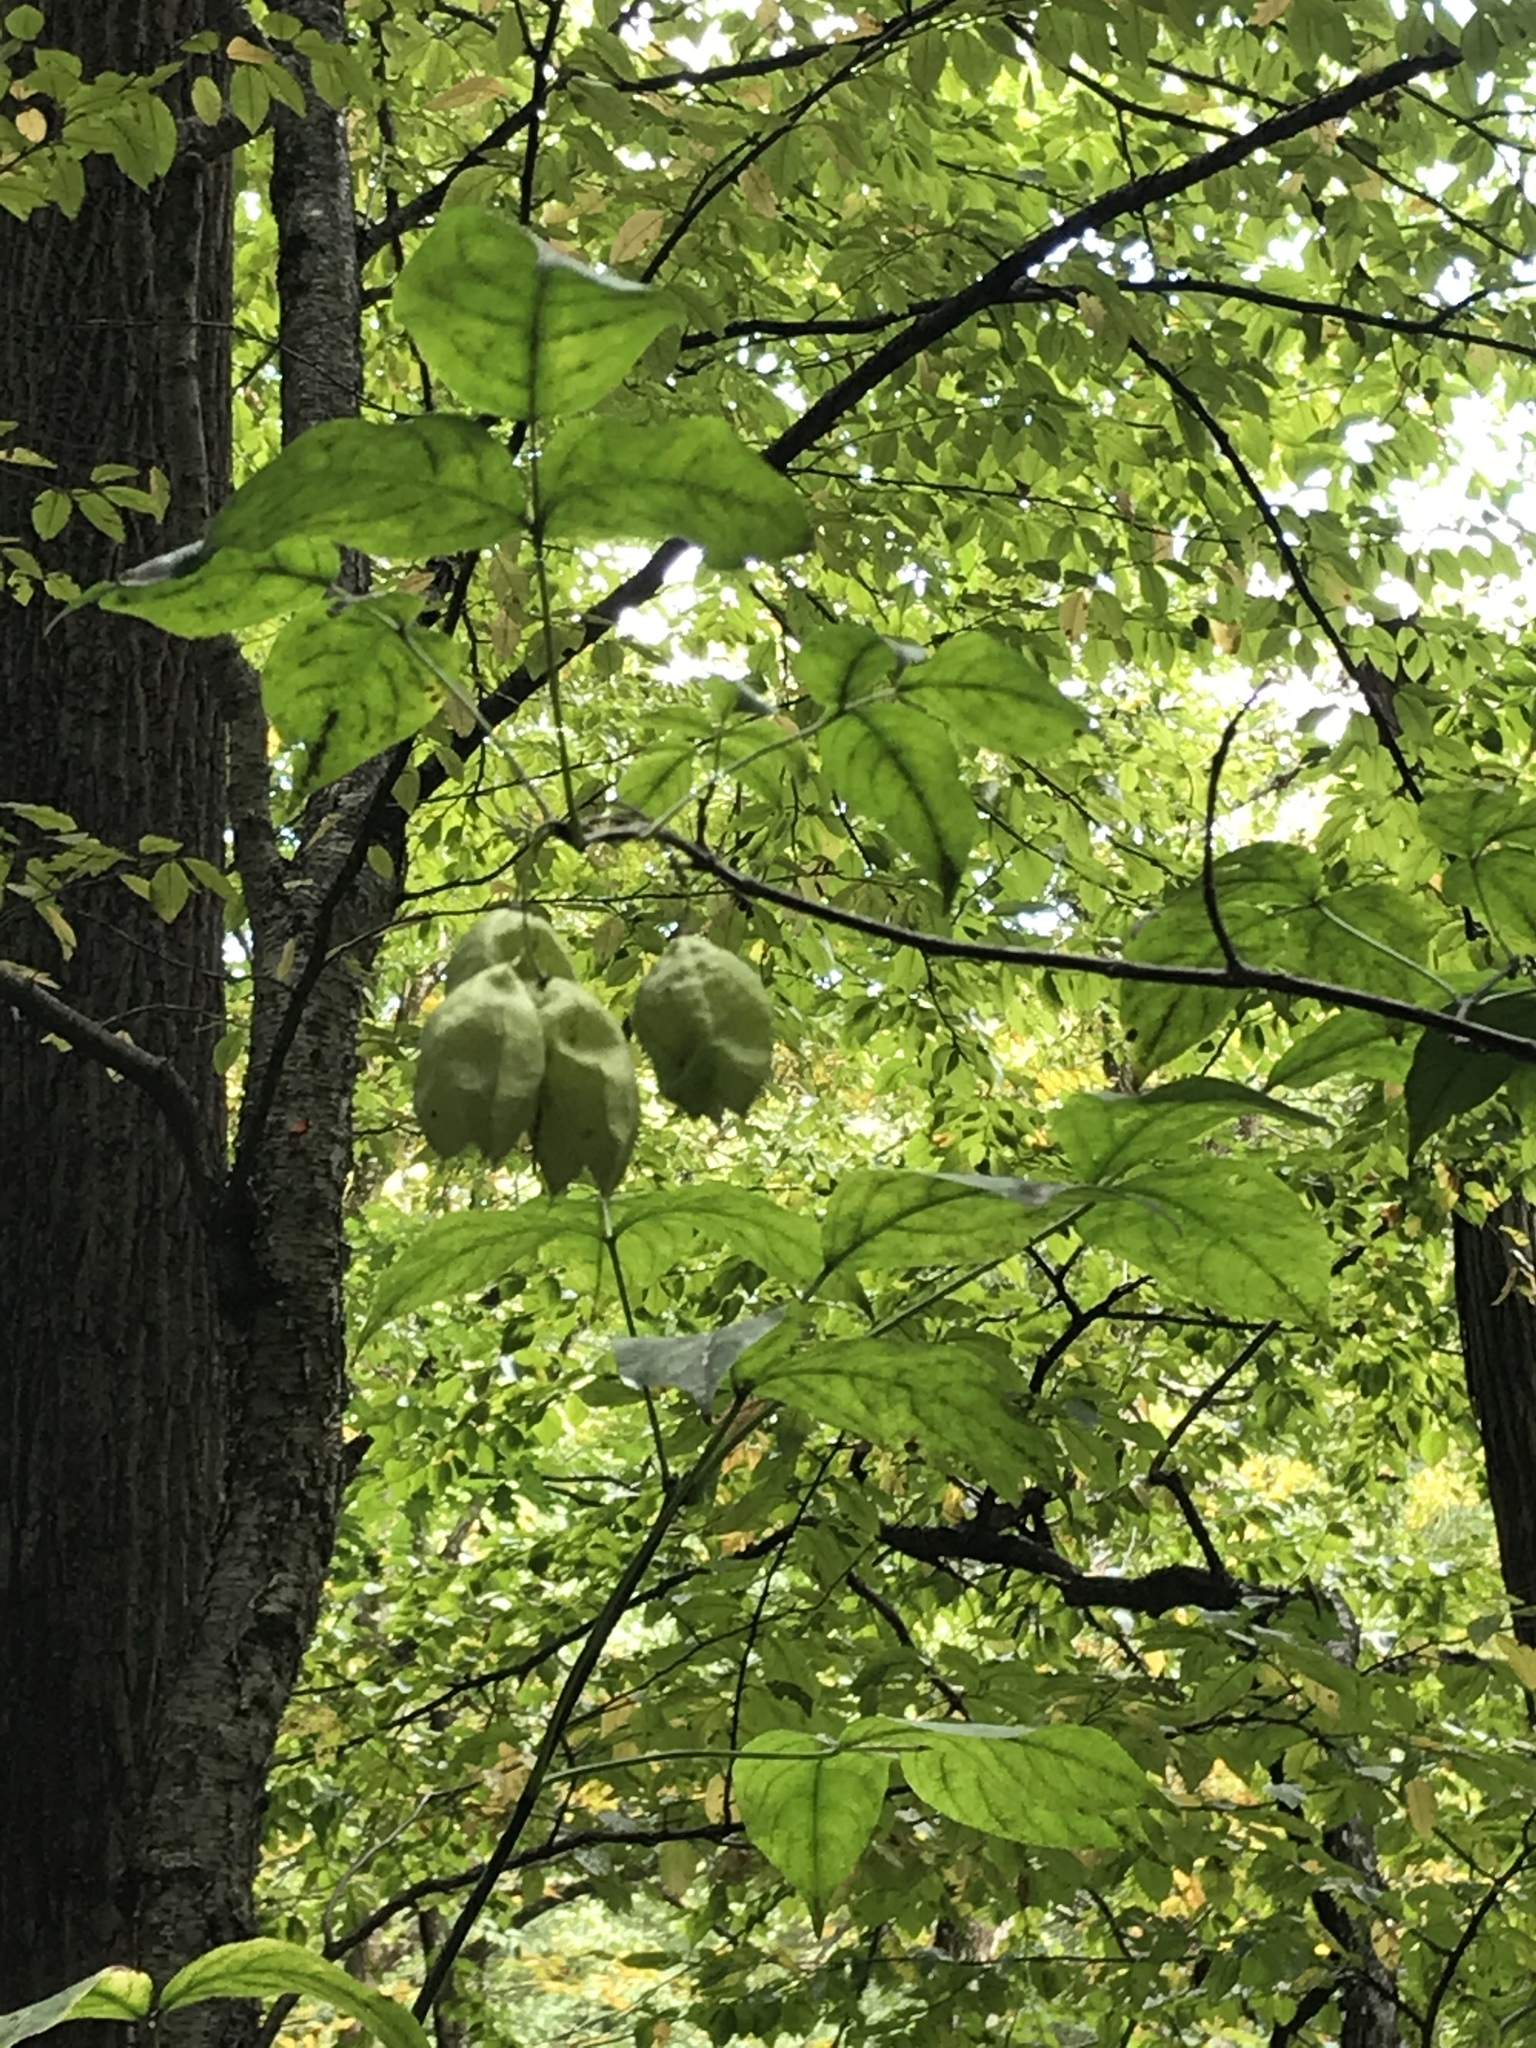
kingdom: Plantae
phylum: Tracheophyta
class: Magnoliopsida
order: Crossosomatales
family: Staphyleaceae
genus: Staphylea
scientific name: Staphylea trifolia
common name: American bladdernut
